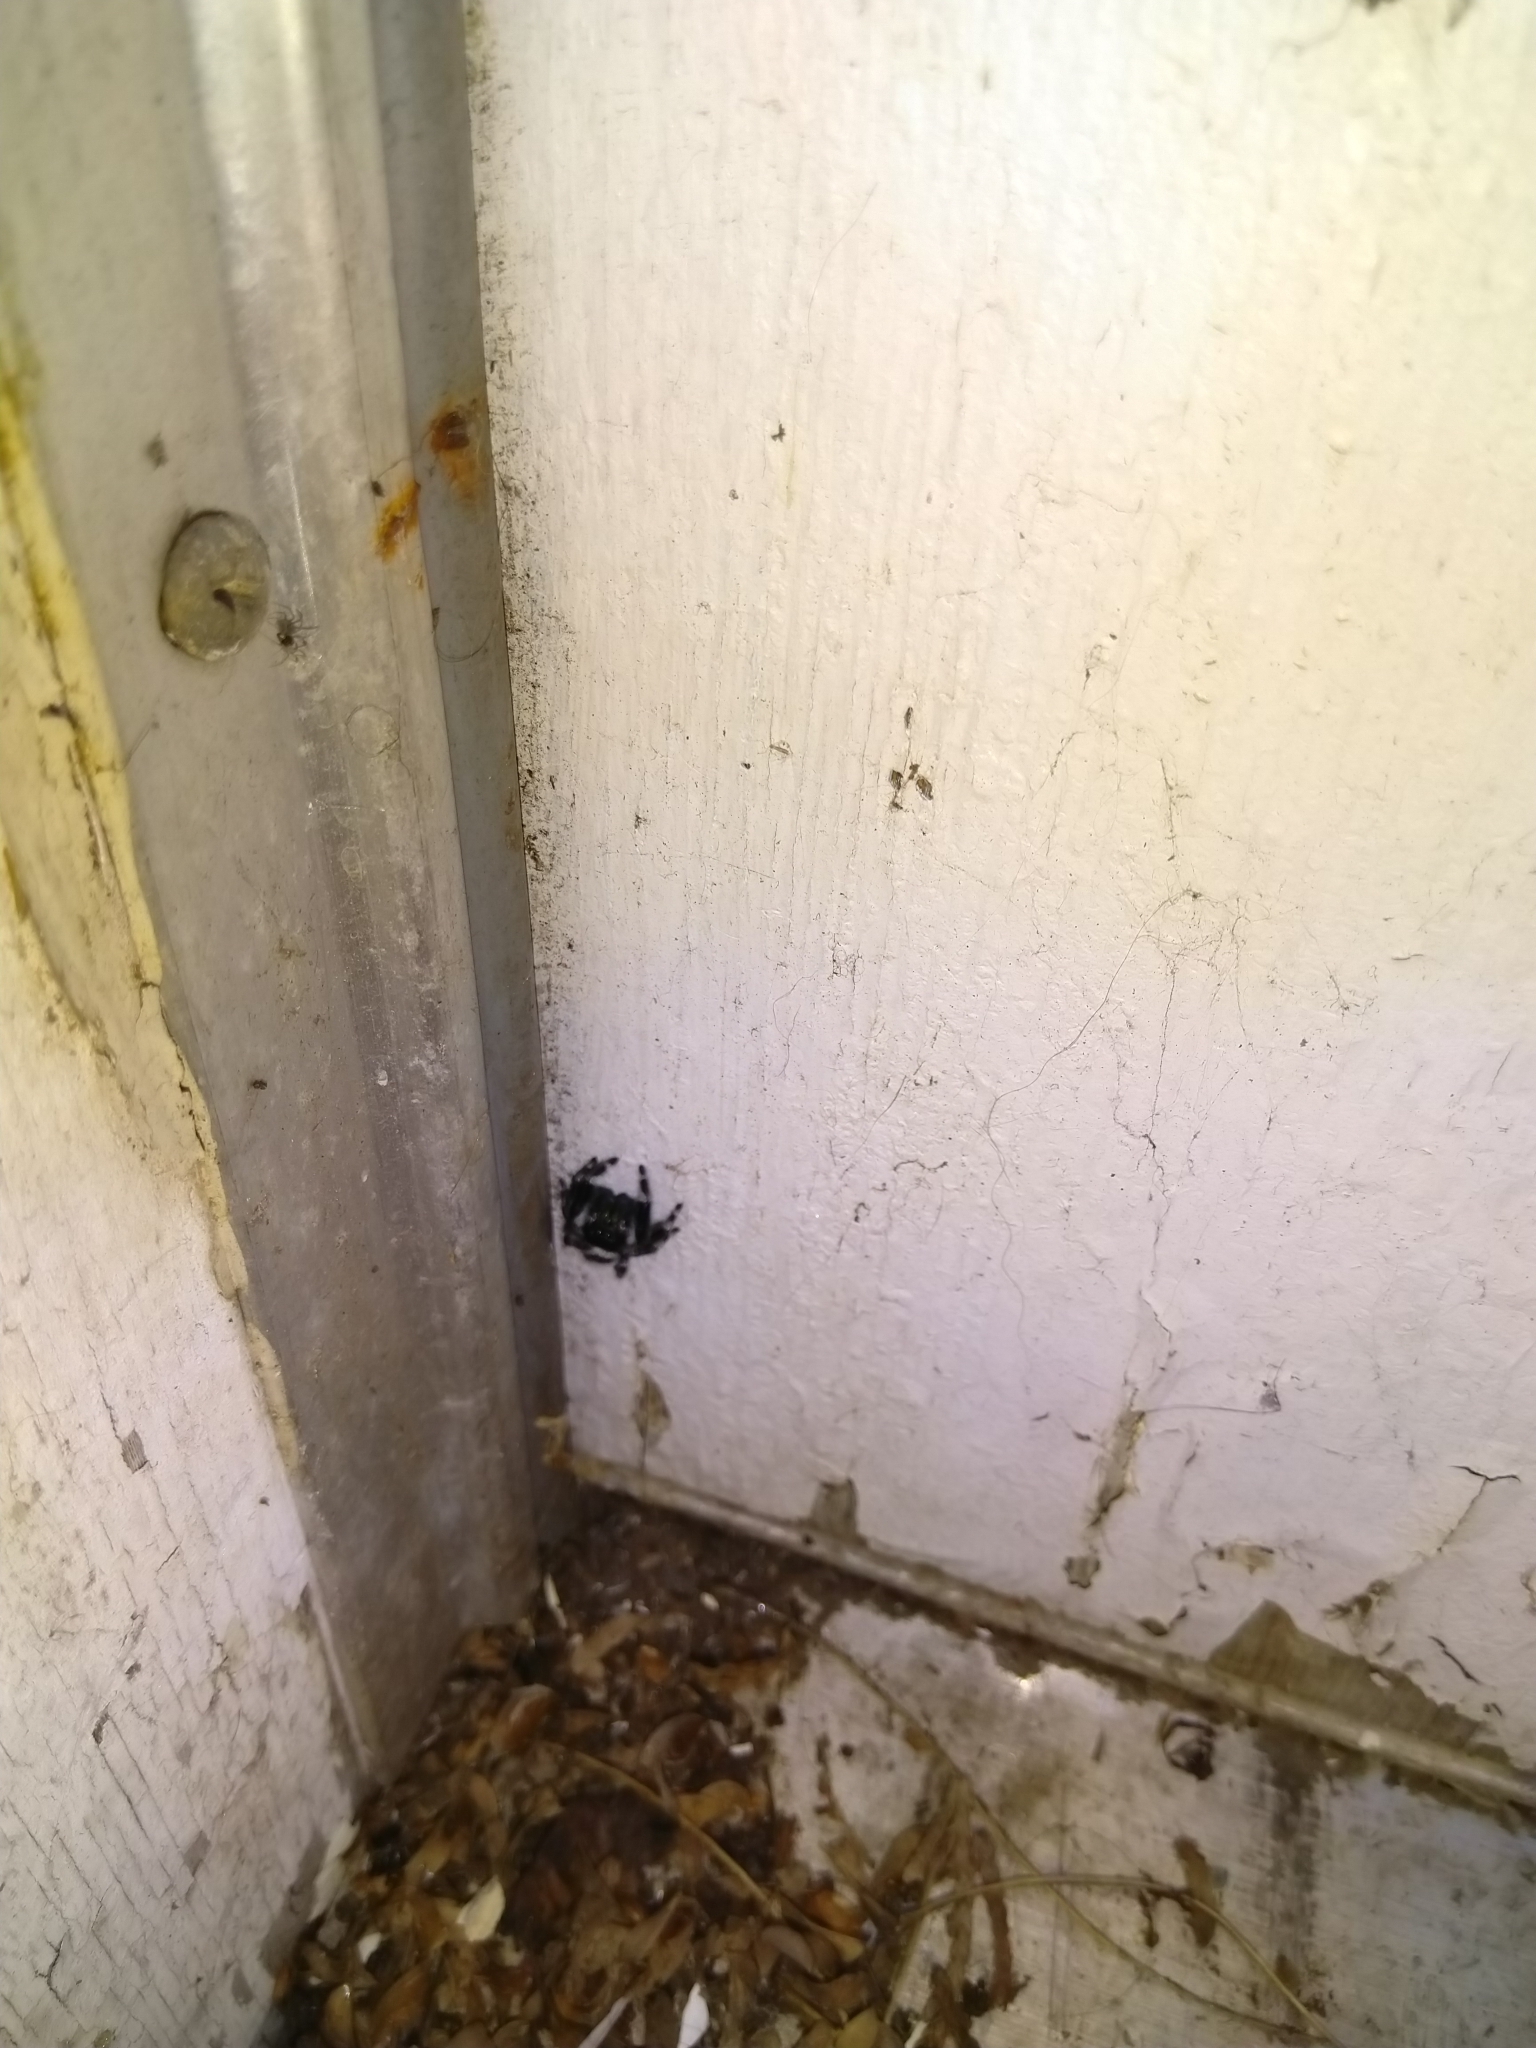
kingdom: Animalia
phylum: Arthropoda
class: Arachnida
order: Araneae
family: Salticidae
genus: Phidippus
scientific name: Phidippus audax
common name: Bold jumper
